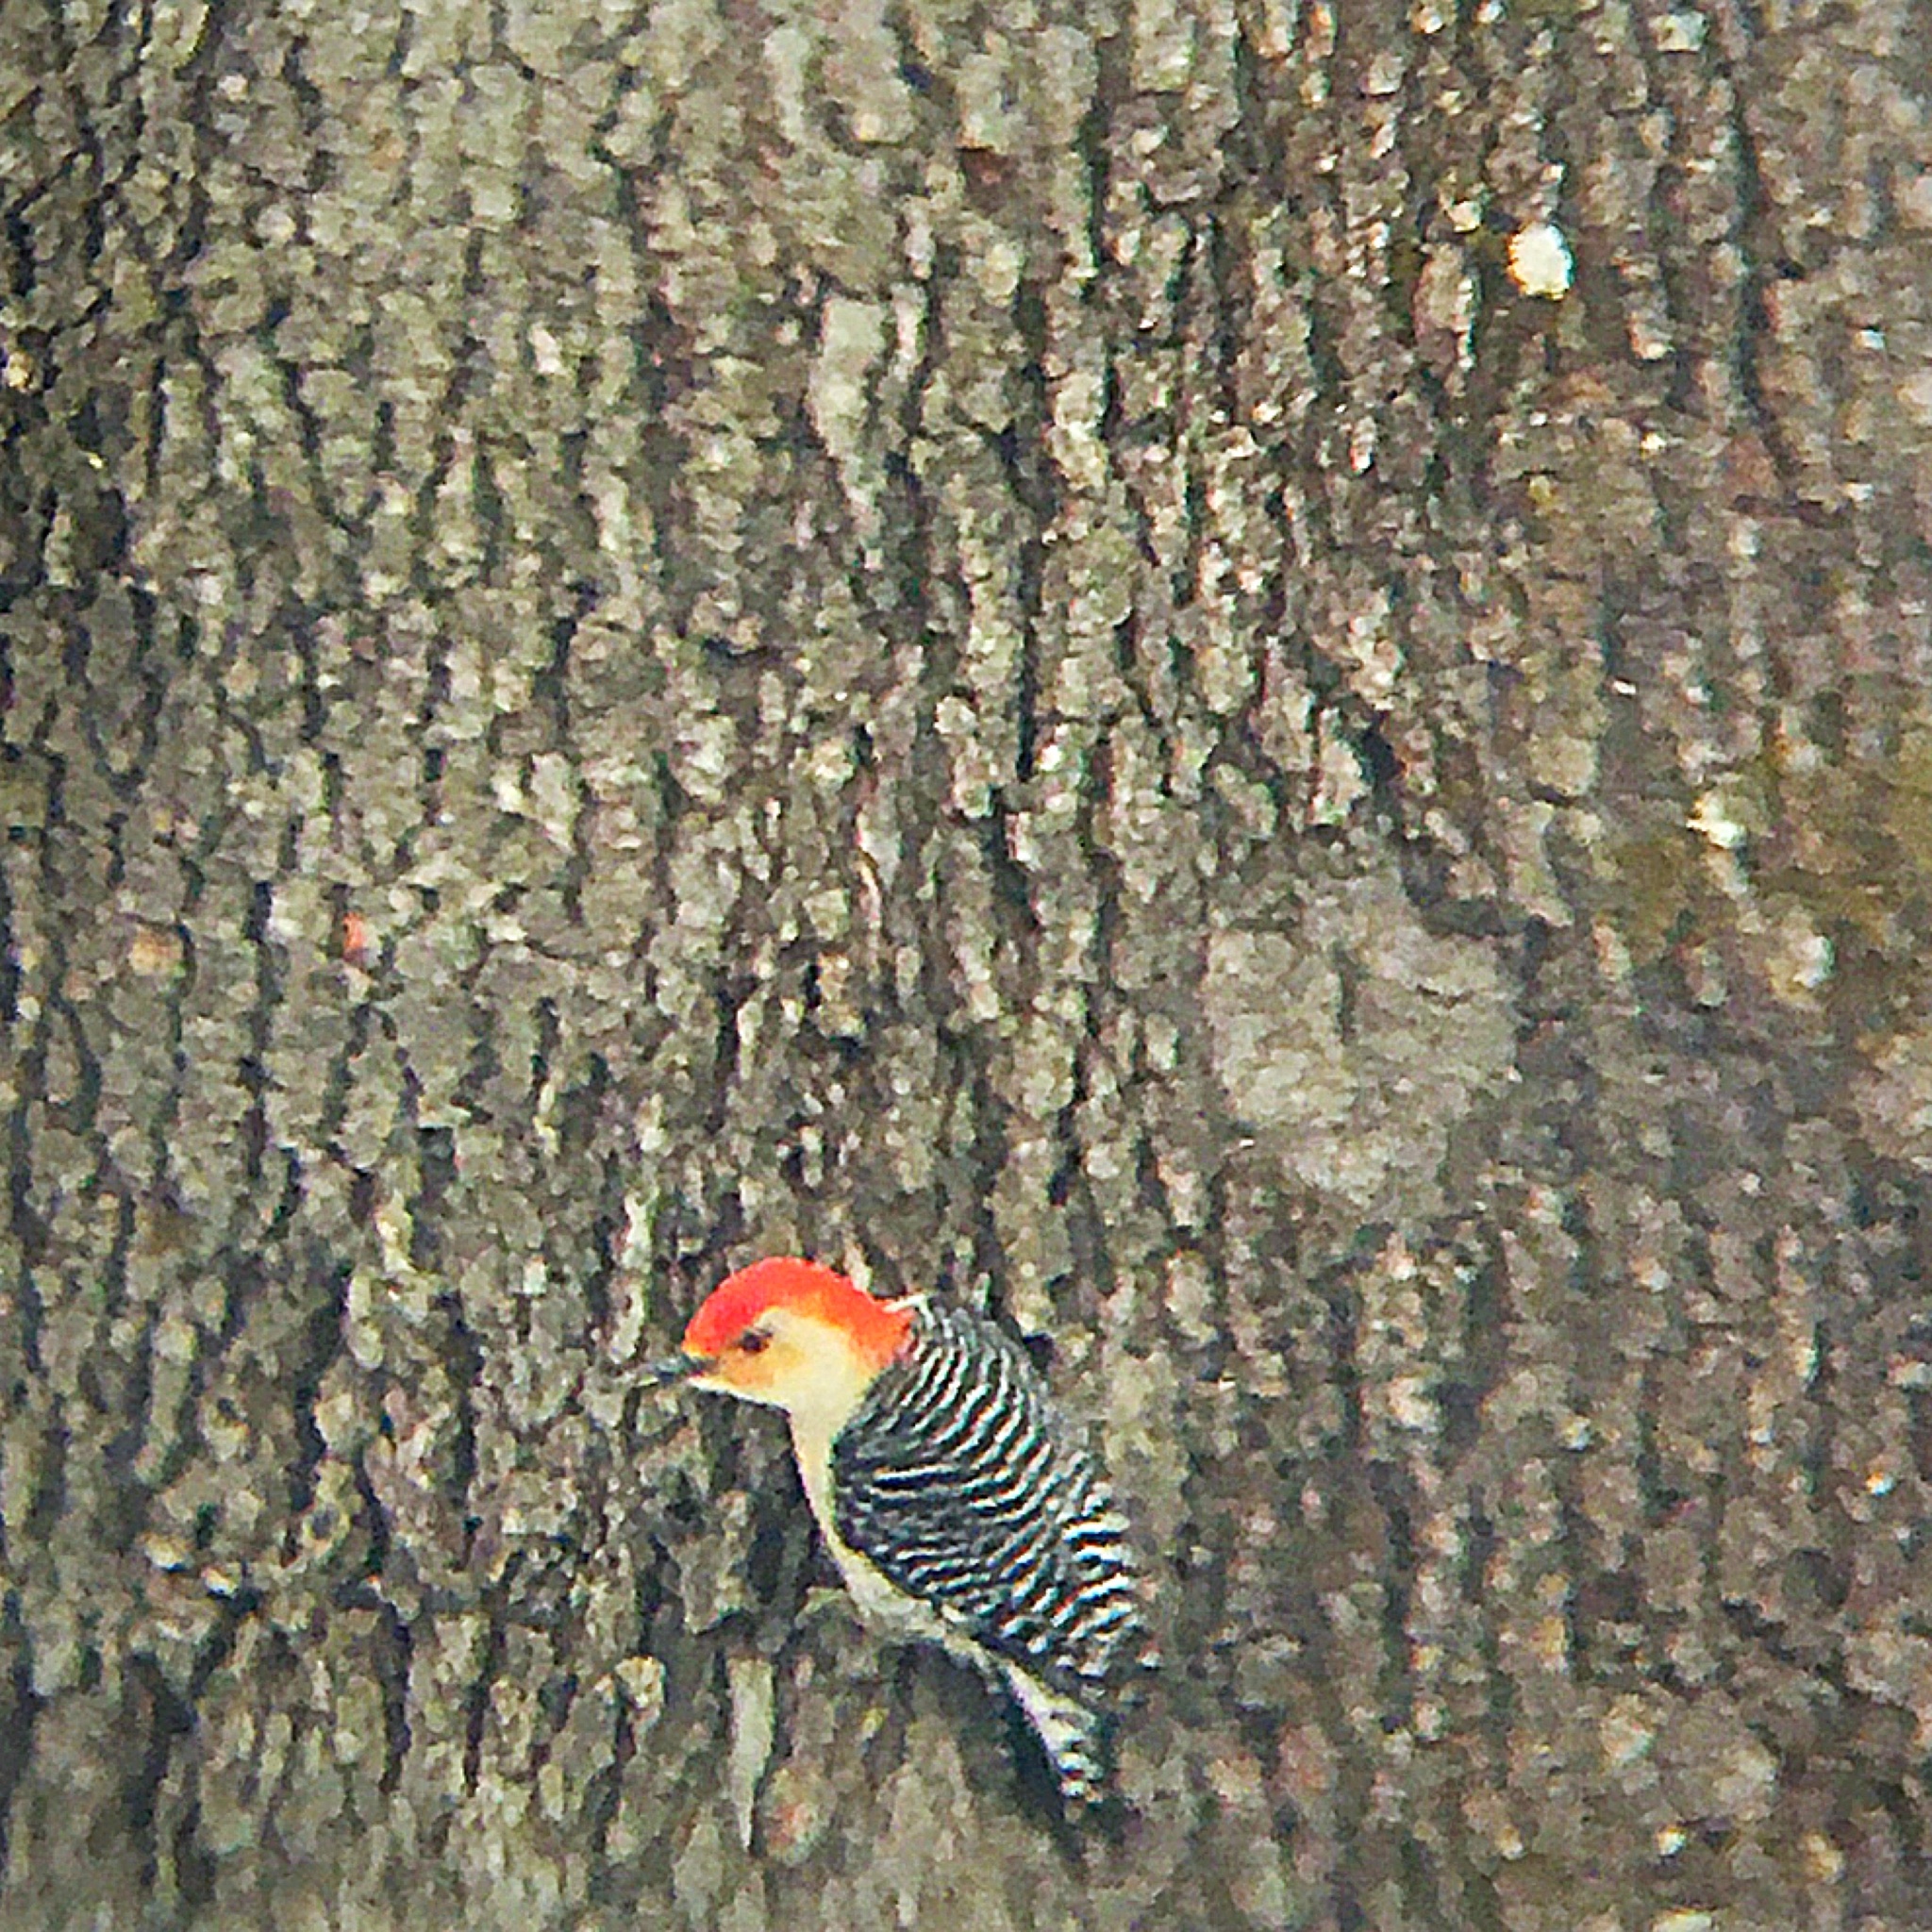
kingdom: Animalia
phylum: Chordata
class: Aves
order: Piciformes
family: Picidae
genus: Melanerpes
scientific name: Melanerpes carolinus
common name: Red-bellied woodpecker
